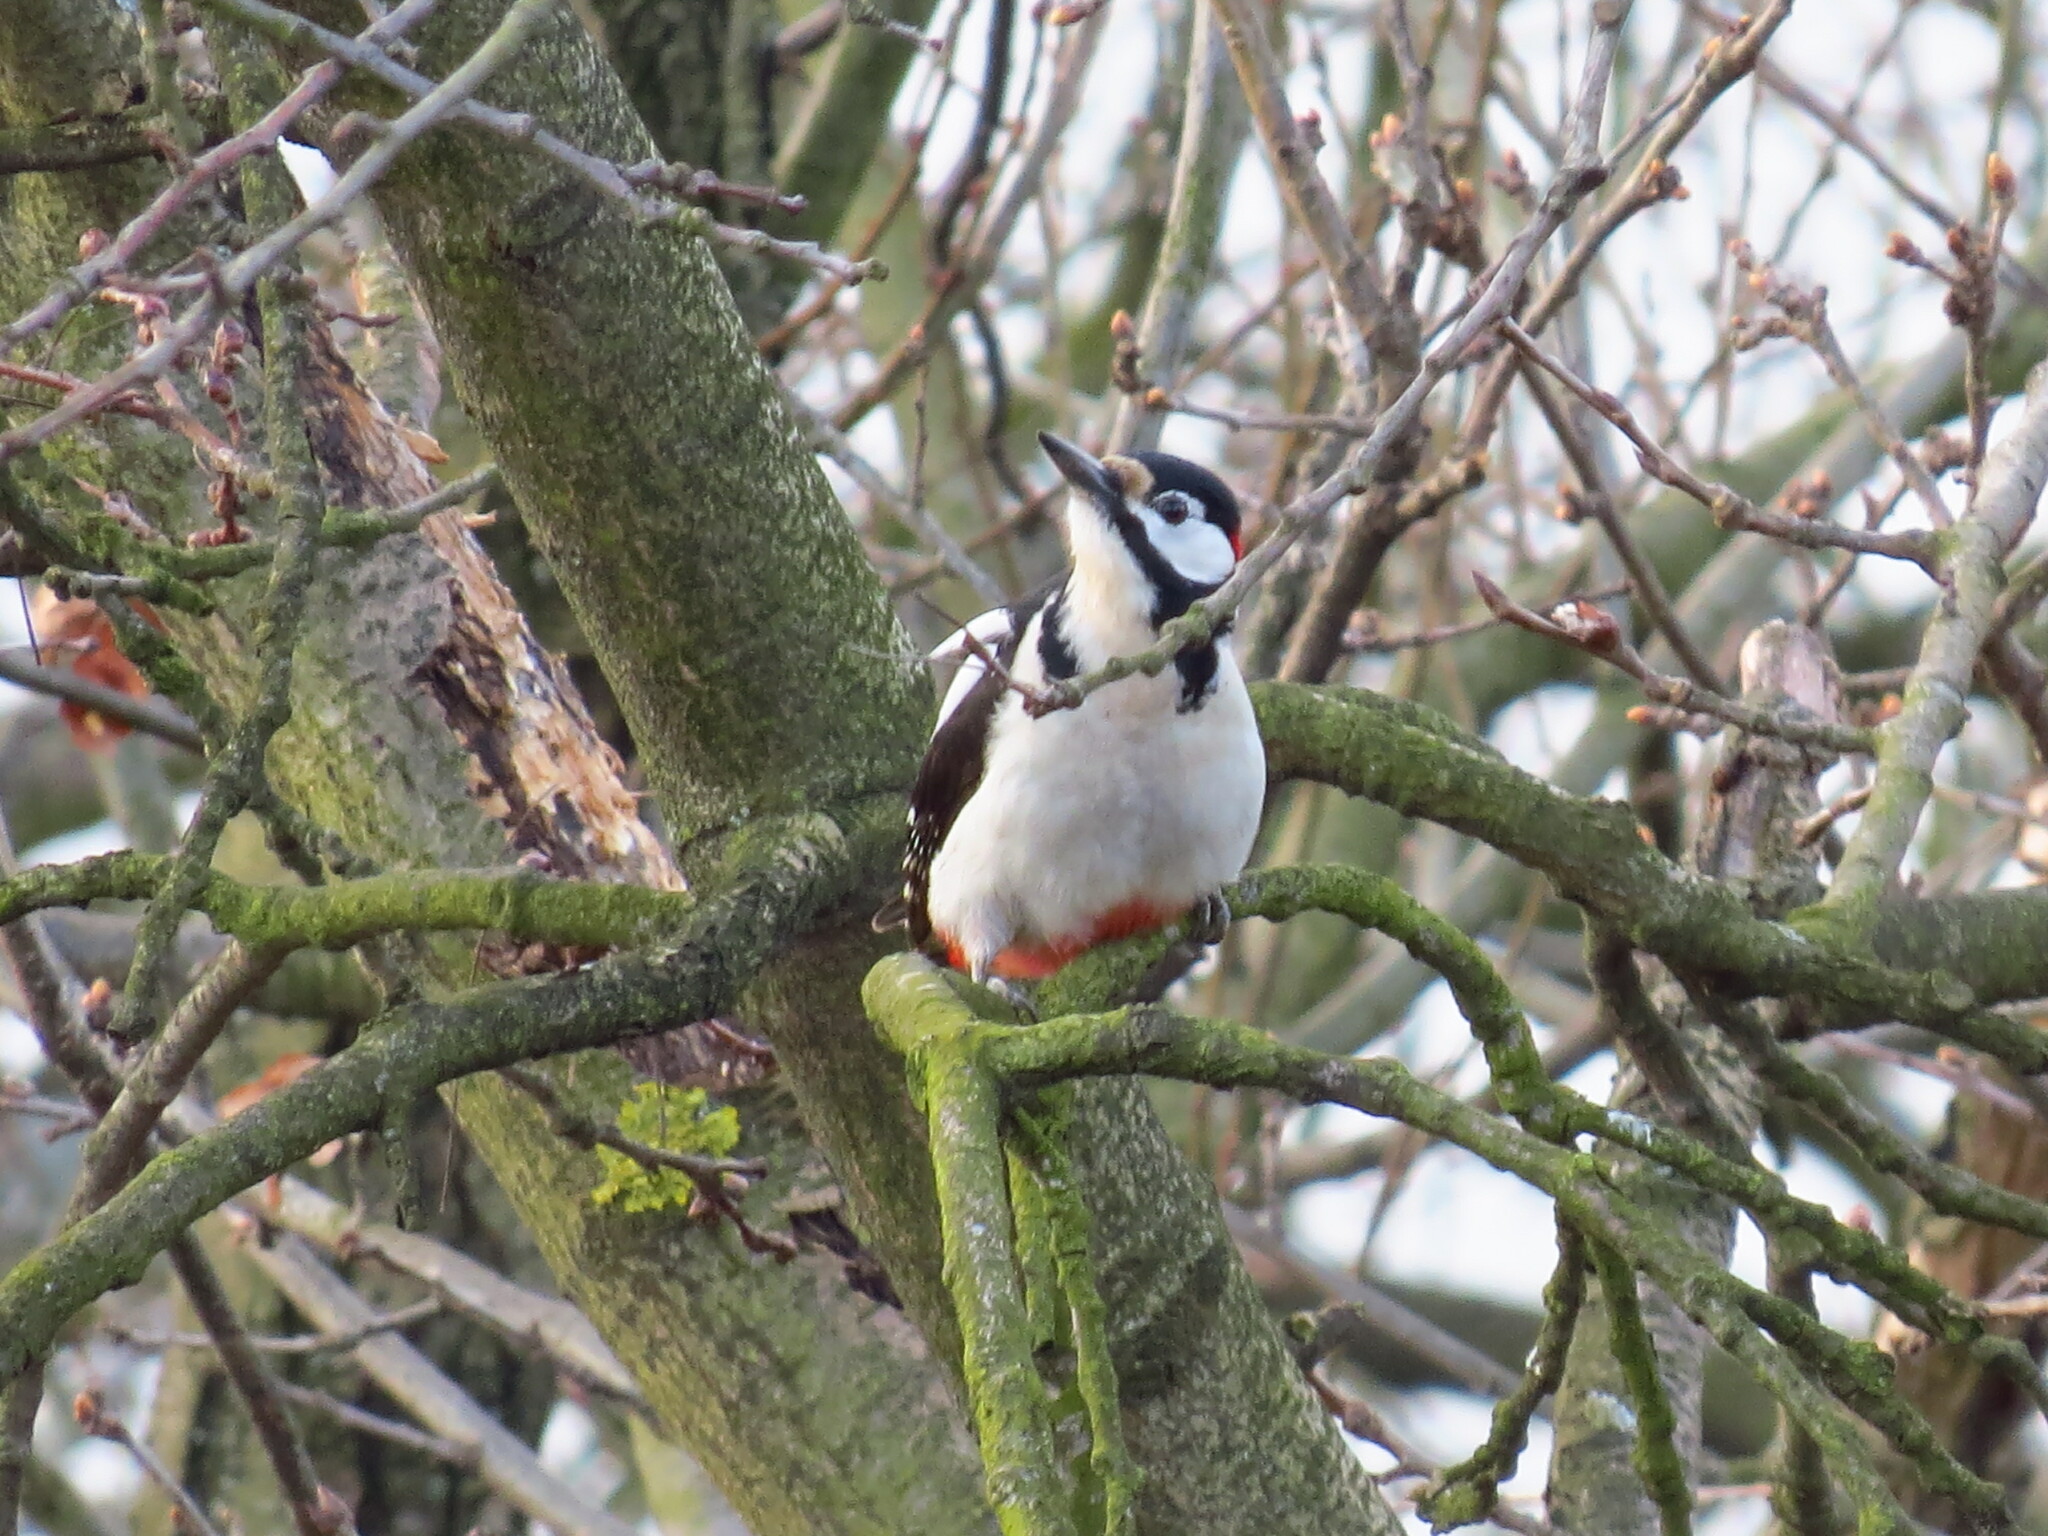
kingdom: Animalia
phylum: Chordata
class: Aves
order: Piciformes
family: Picidae
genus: Dendrocopos
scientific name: Dendrocopos major
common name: Great spotted woodpecker
